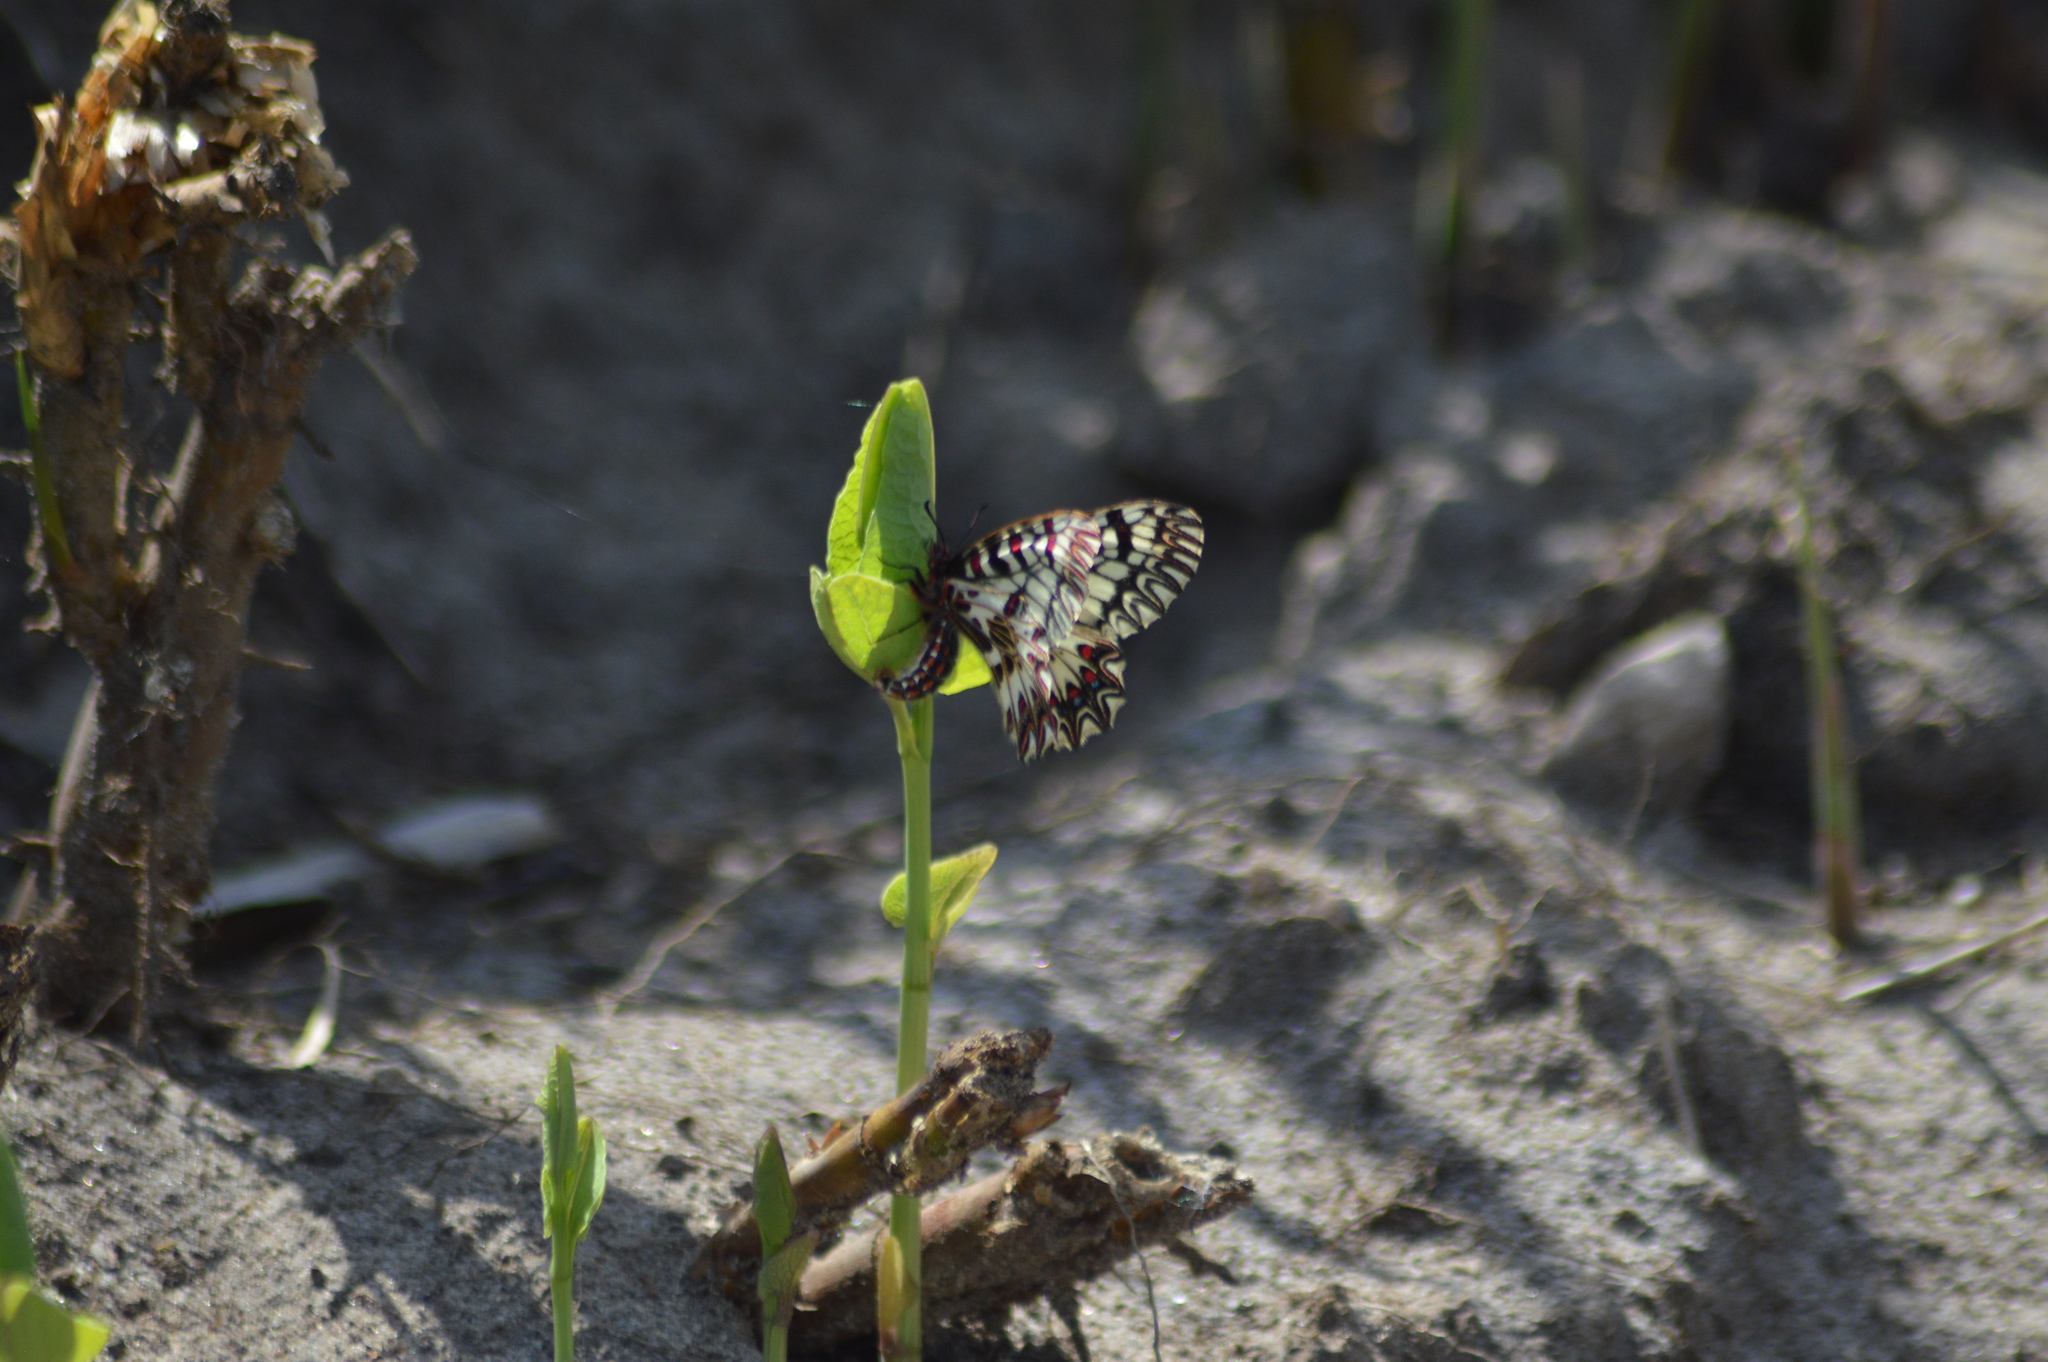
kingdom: Animalia
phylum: Arthropoda
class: Insecta
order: Lepidoptera
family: Papilionidae
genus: Zerynthia
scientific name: Zerynthia polyxena
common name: Southern festoon
